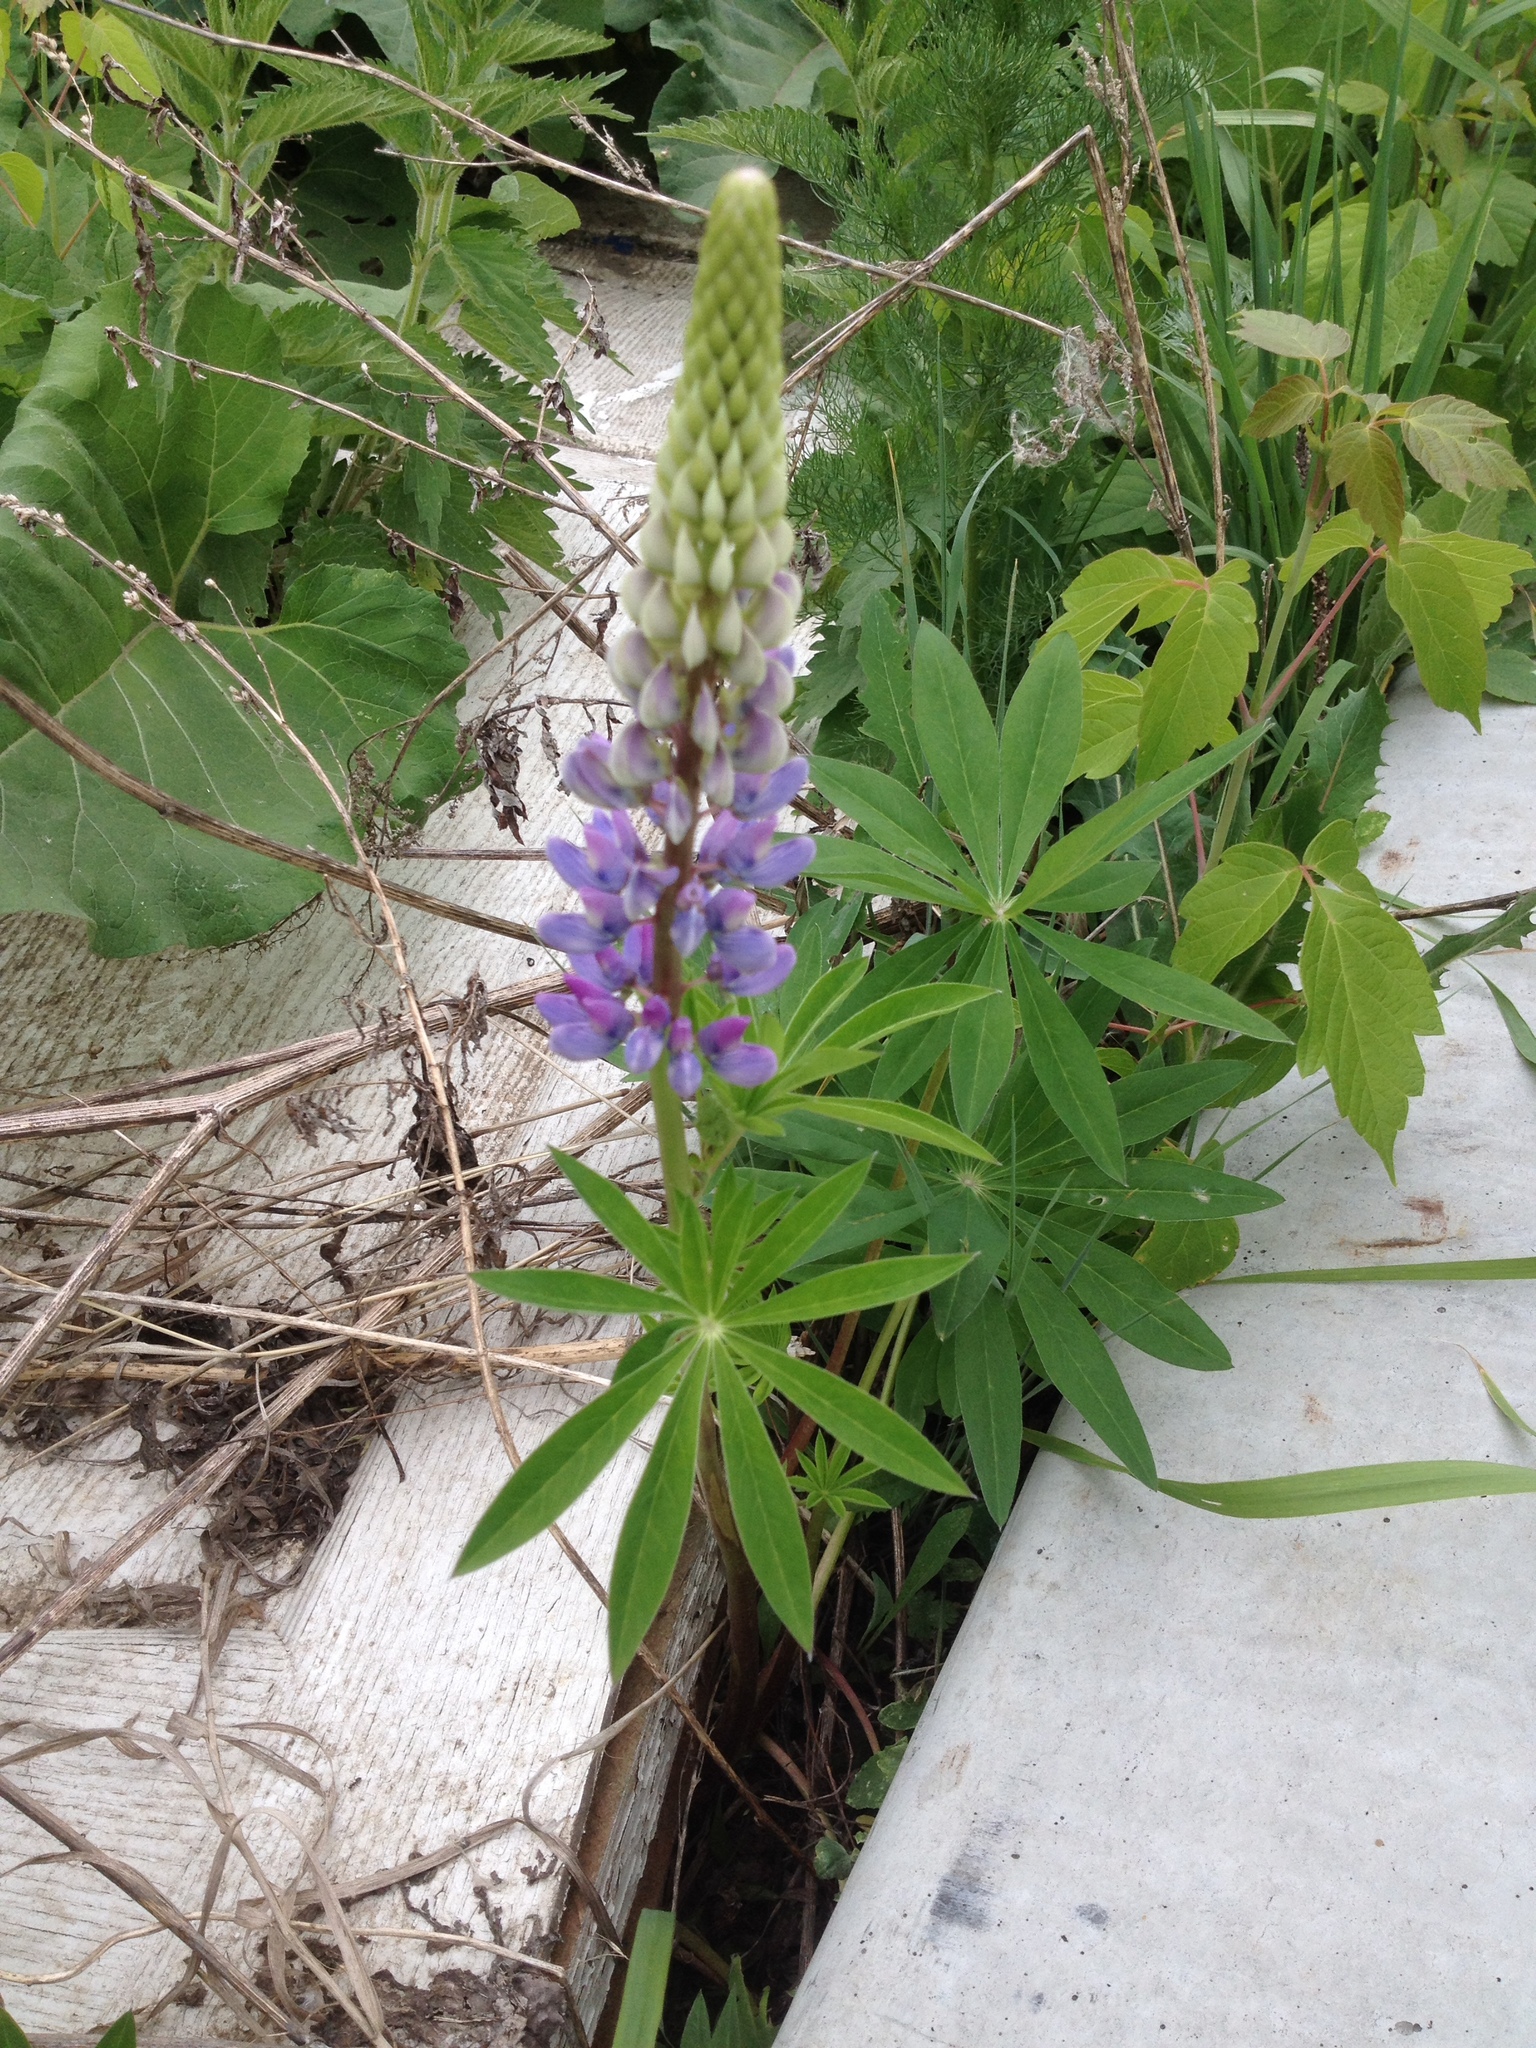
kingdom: Plantae
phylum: Tracheophyta
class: Magnoliopsida
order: Fabales
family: Fabaceae
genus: Lupinus
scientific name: Lupinus polyphyllus
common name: Garden lupin
